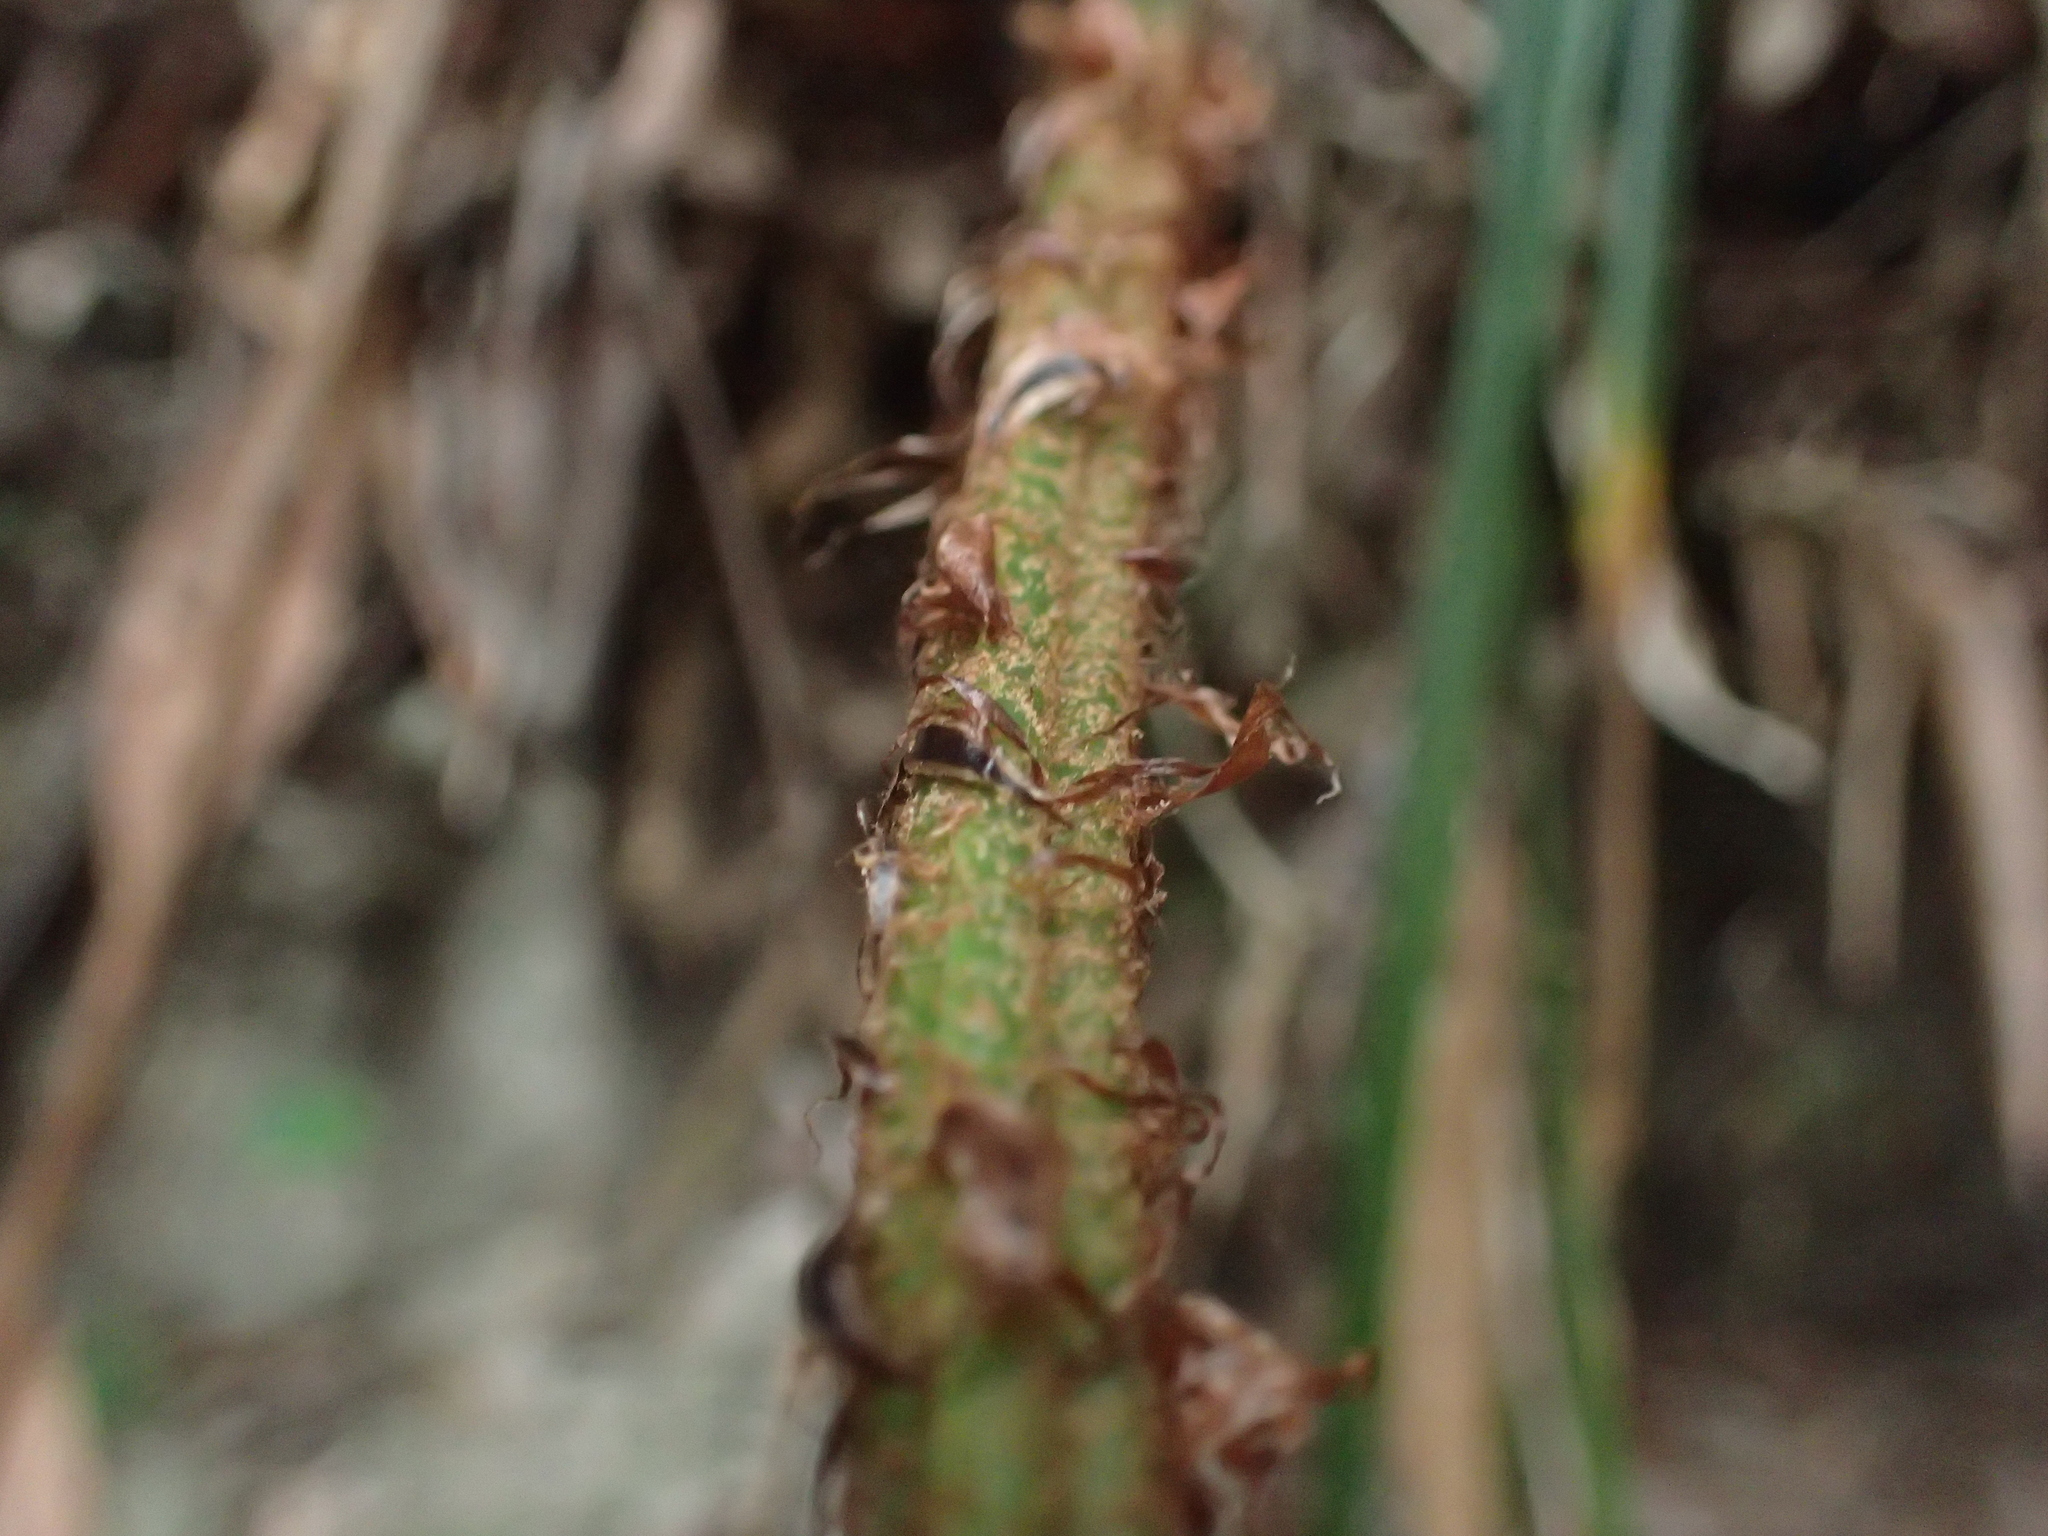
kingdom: Plantae
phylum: Tracheophyta
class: Polypodiopsida
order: Polypodiales
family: Dryopteridaceae
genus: Polystichum
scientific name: Polystichum biaristatum
